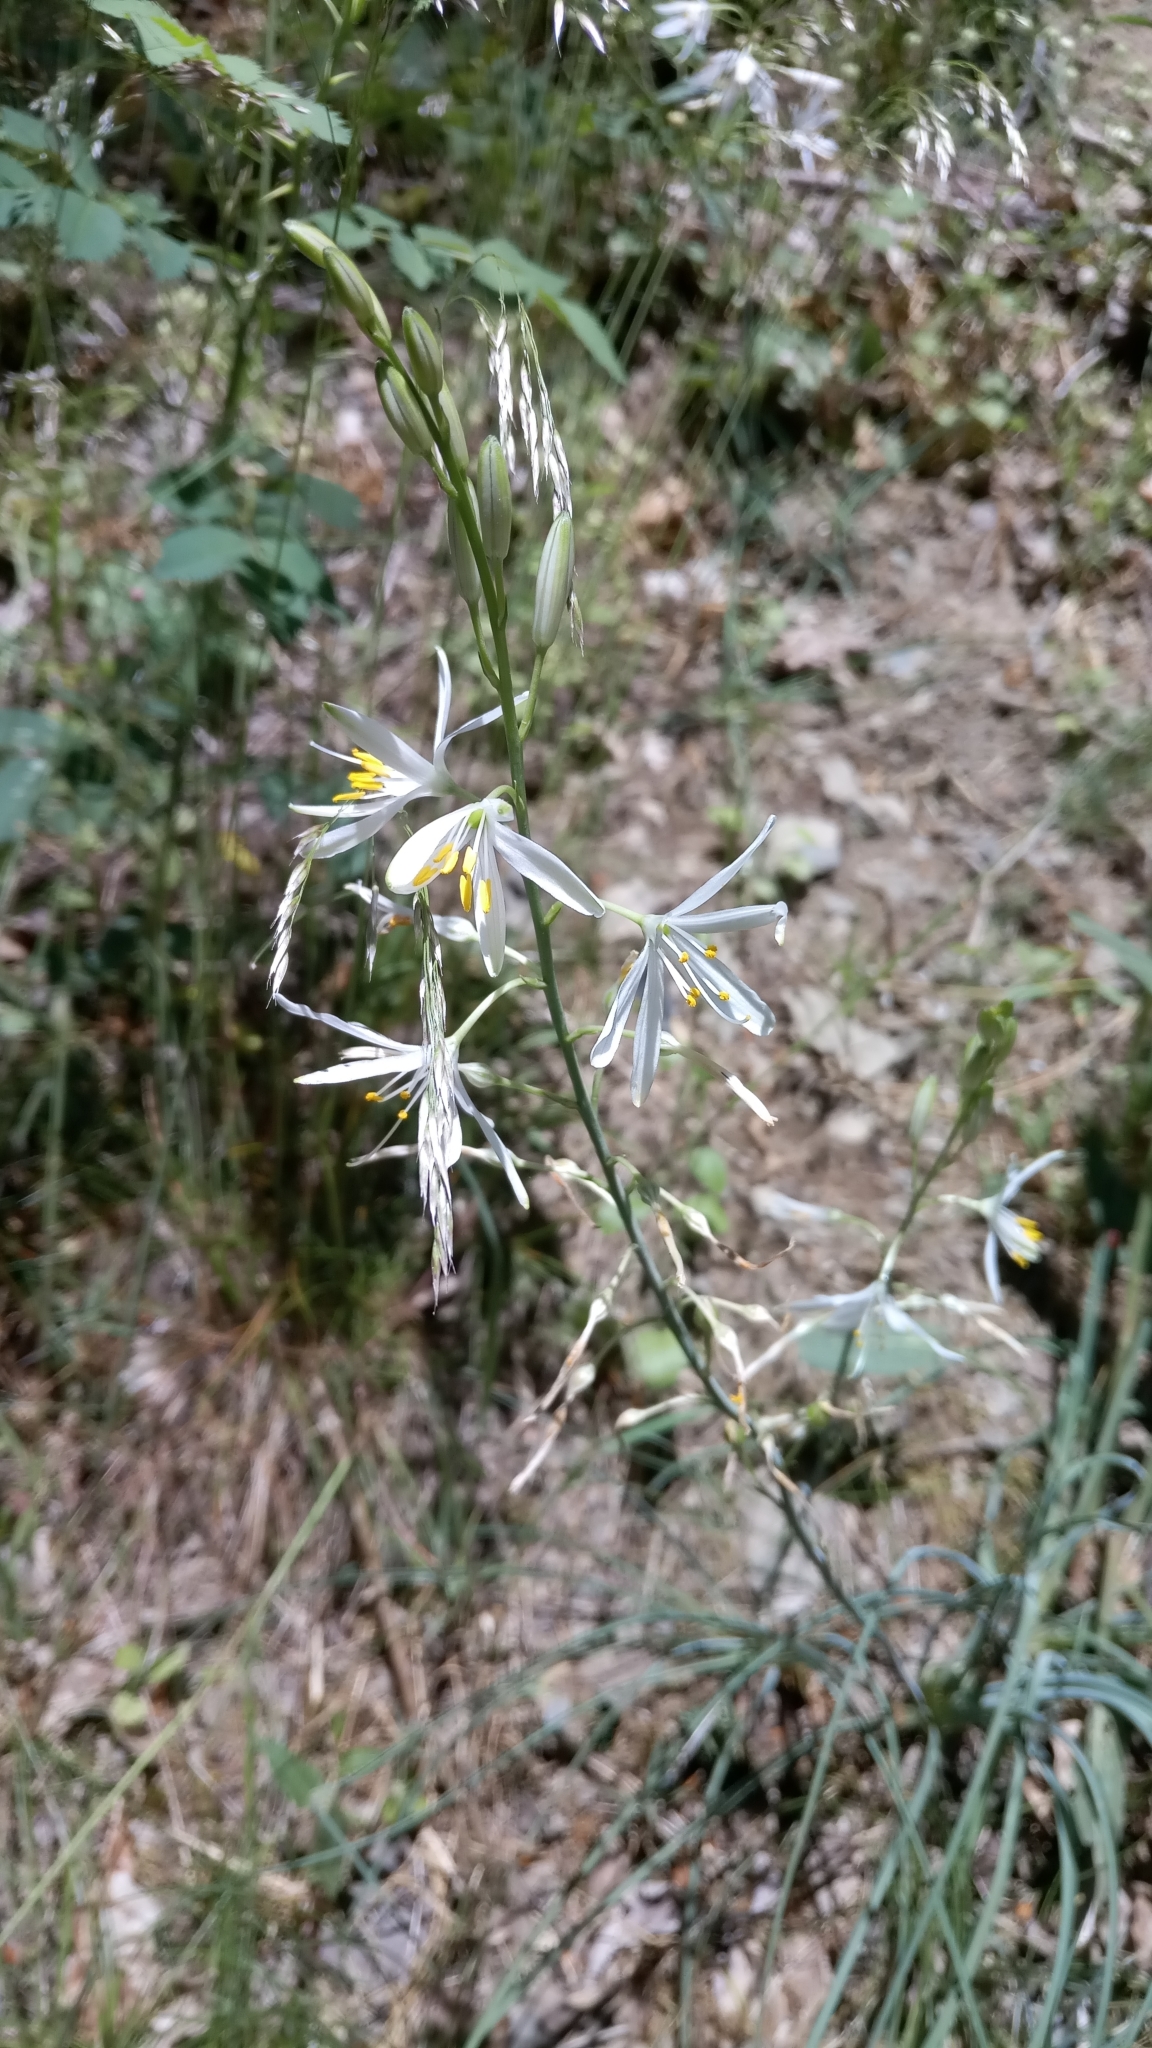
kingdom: Plantae
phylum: Tracheophyta
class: Liliopsida
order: Asparagales
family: Asparagaceae
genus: Anthericum
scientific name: Anthericum liliago
